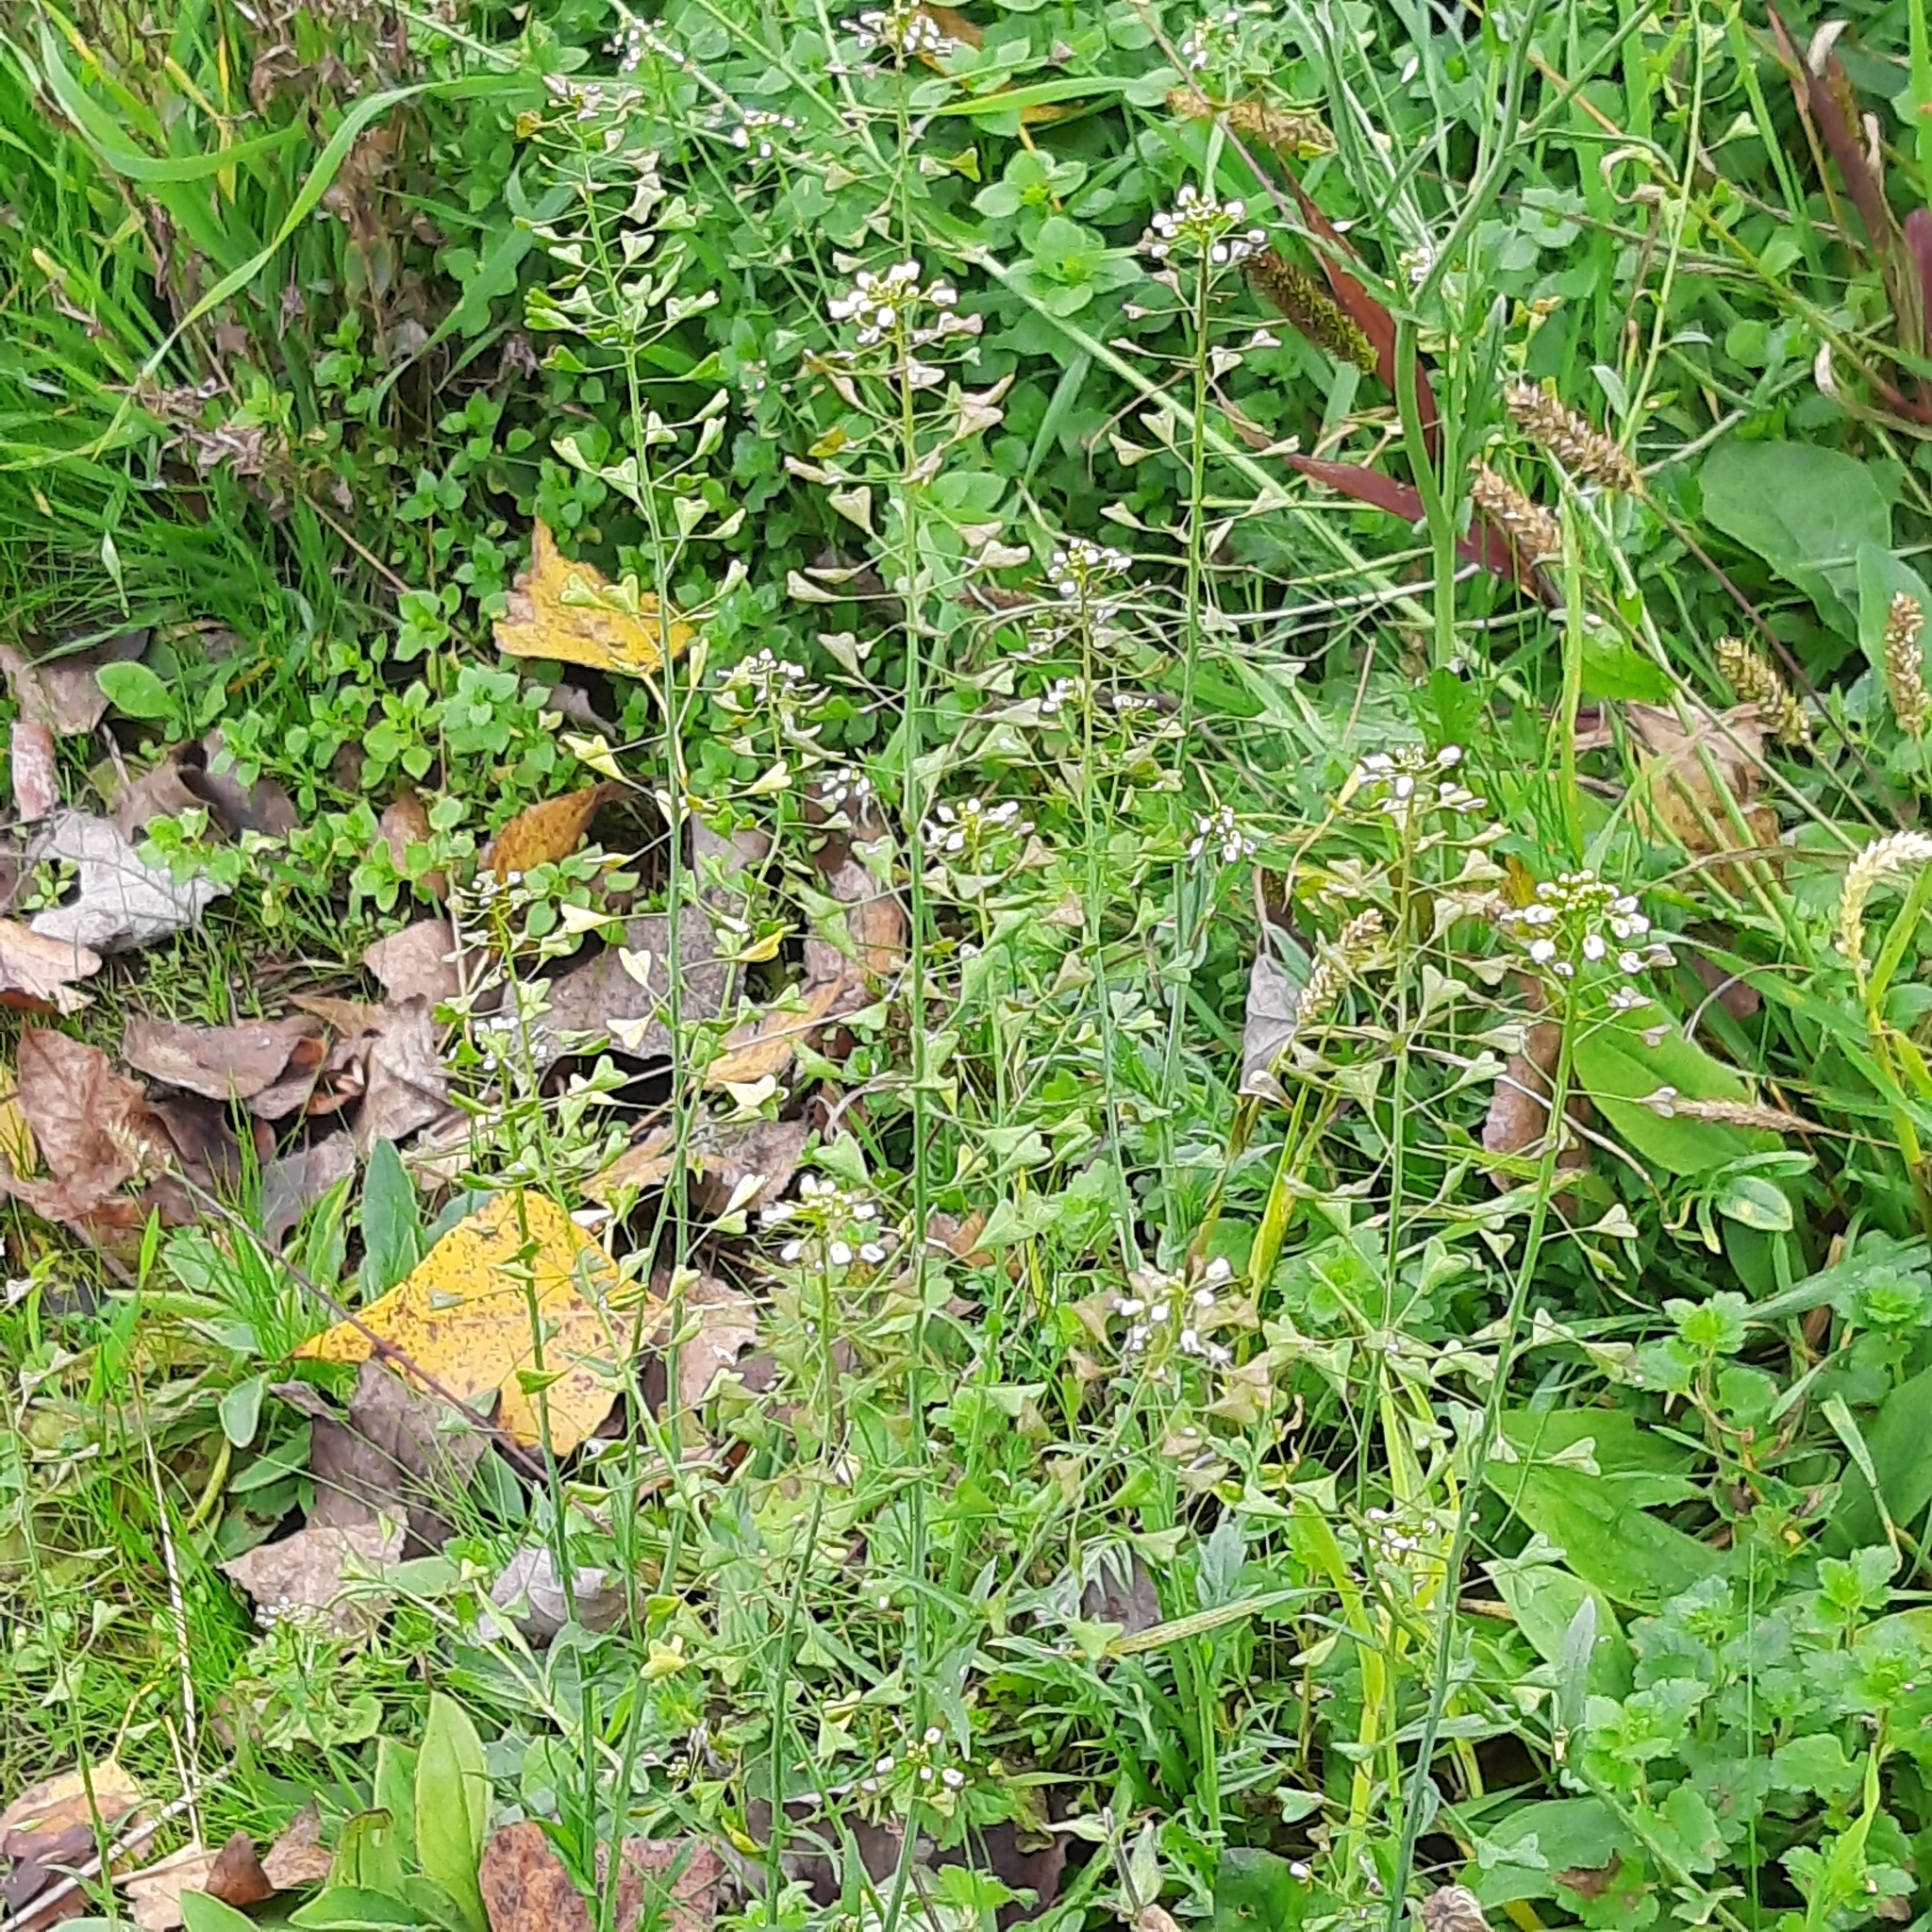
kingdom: Plantae
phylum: Tracheophyta
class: Magnoliopsida
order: Brassicales
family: Brassicaceae
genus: Capsella
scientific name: Capsella bursa-pastoris
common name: Shepherd's purse
